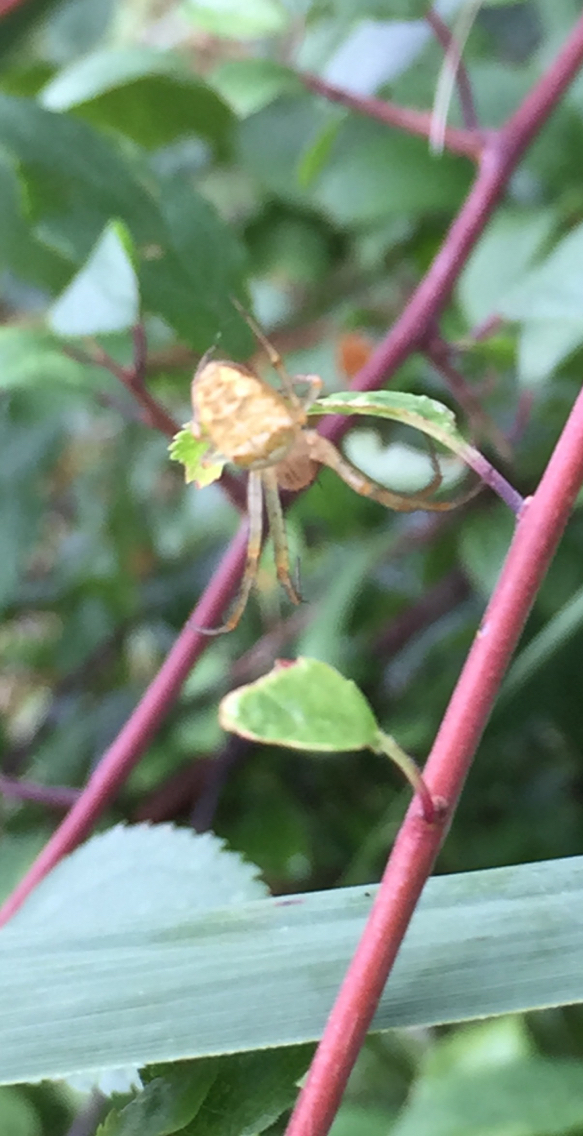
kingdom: Animalia
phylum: Arthropoda
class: Arachnida
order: Araneae
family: Tetragnathidae
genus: Metellina
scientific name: Metellina
